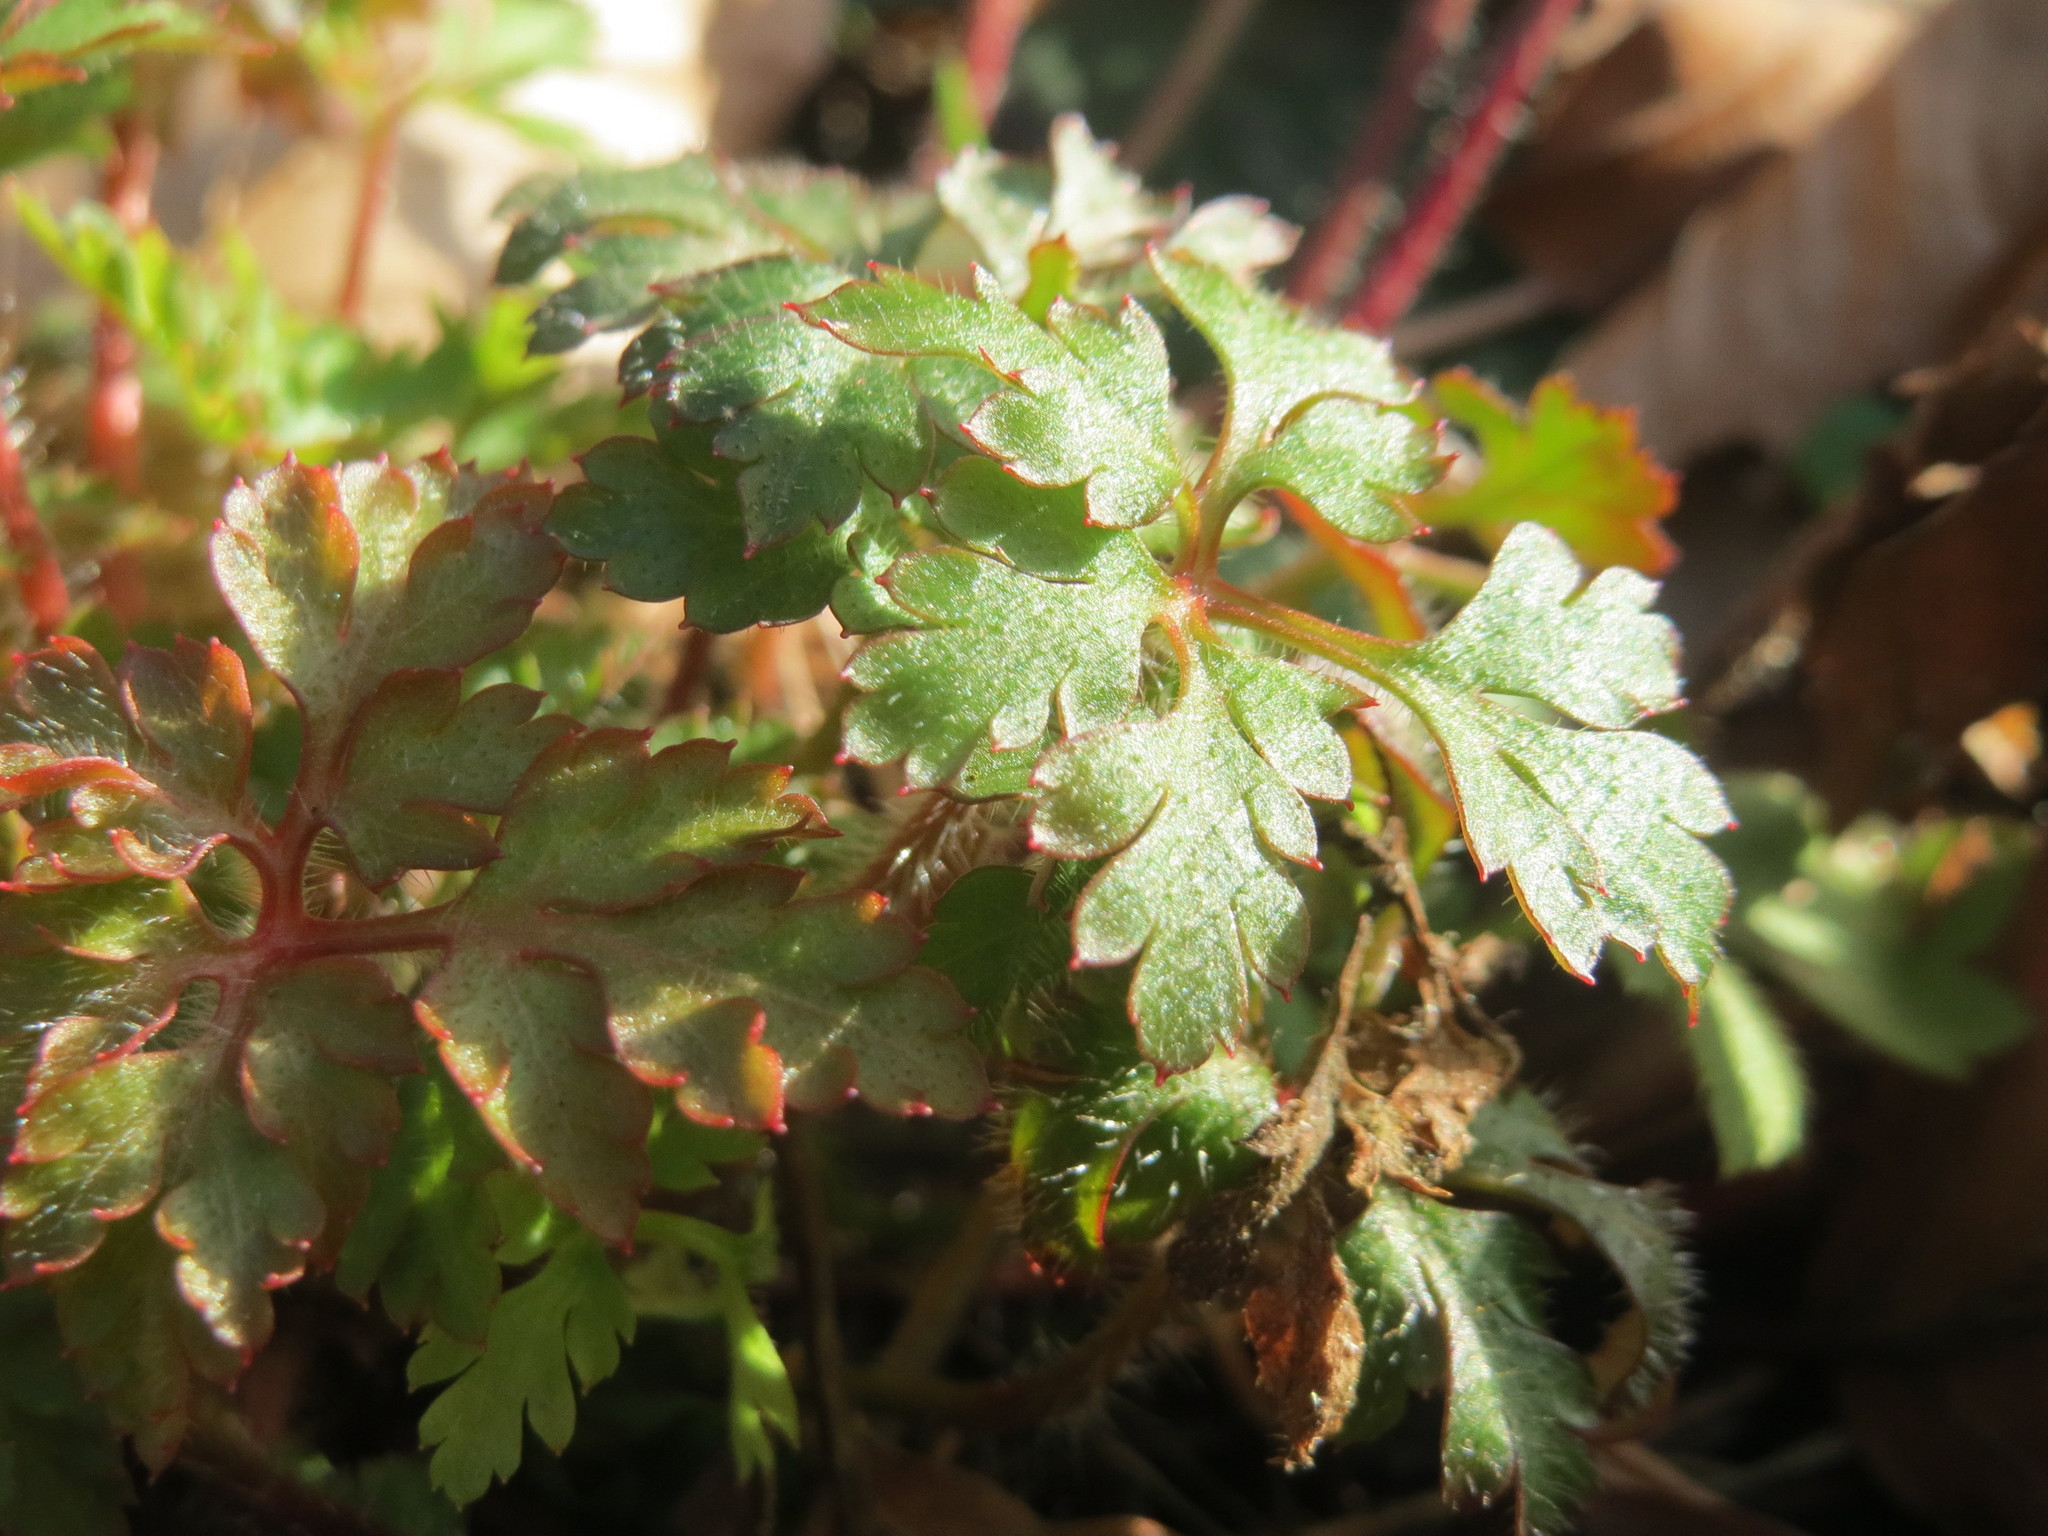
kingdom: Plantae
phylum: Tracheophyta
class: Magnoliopsida
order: Geraniales
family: Geraniaceae
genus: Geranium
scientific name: Geranium robertianum
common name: Herb-robert
